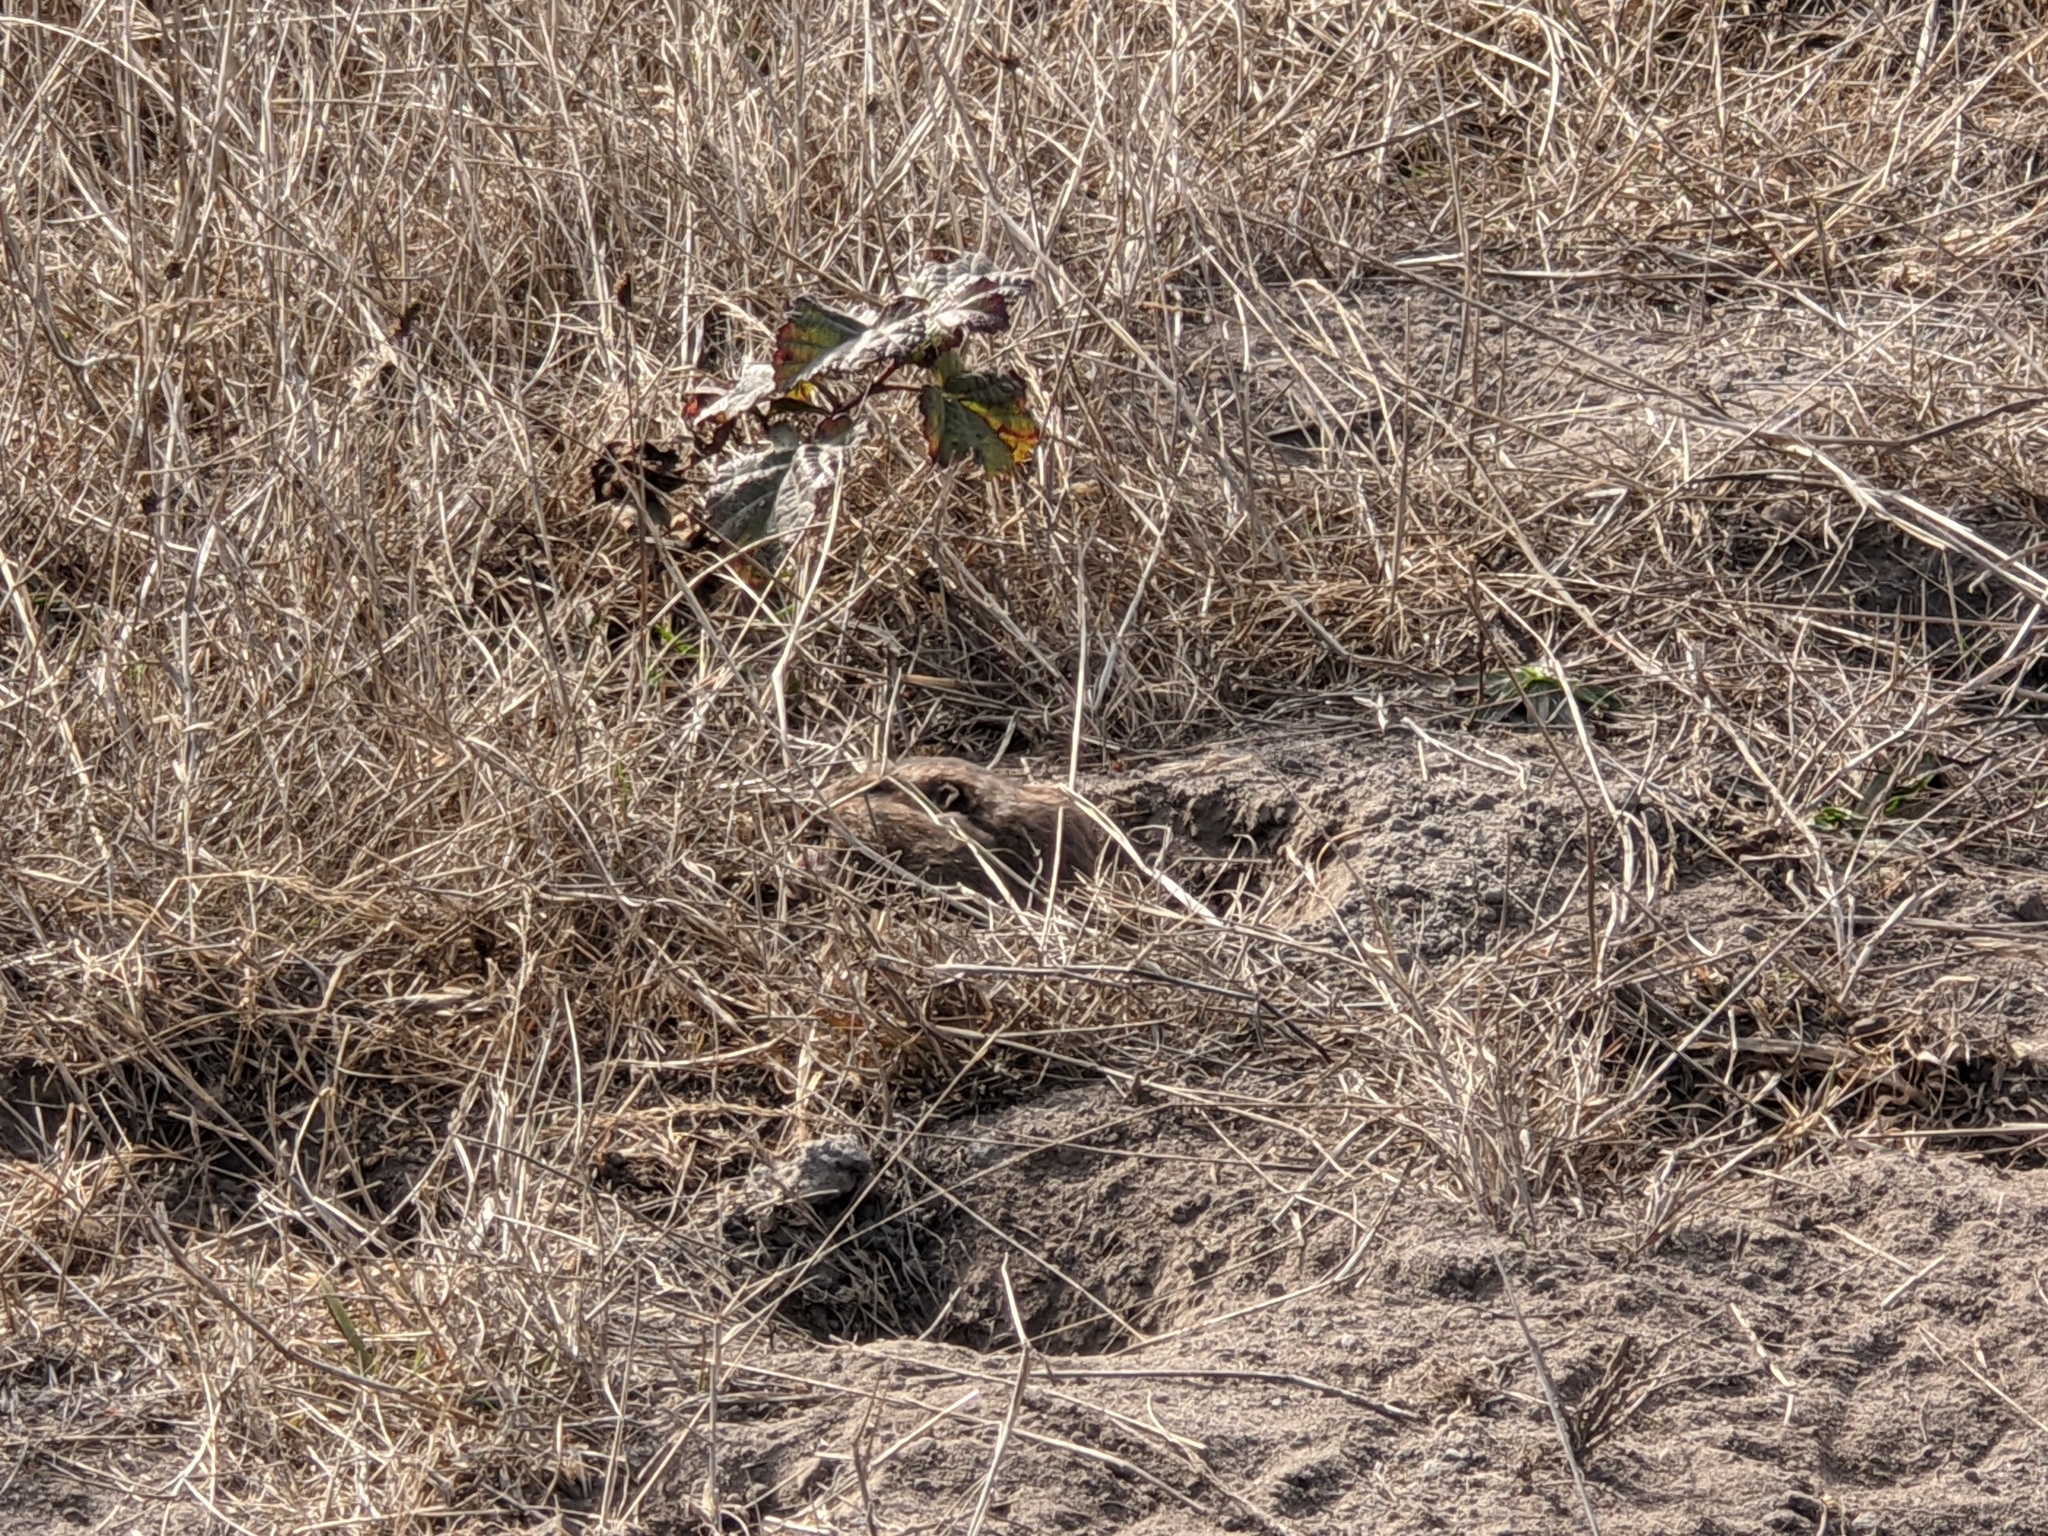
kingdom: Animalia
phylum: Chordata
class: Mammalia
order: Rodentia
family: Geomyidae
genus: Thomomys
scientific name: Thomomys bottae
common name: Botta's pocket gopher
